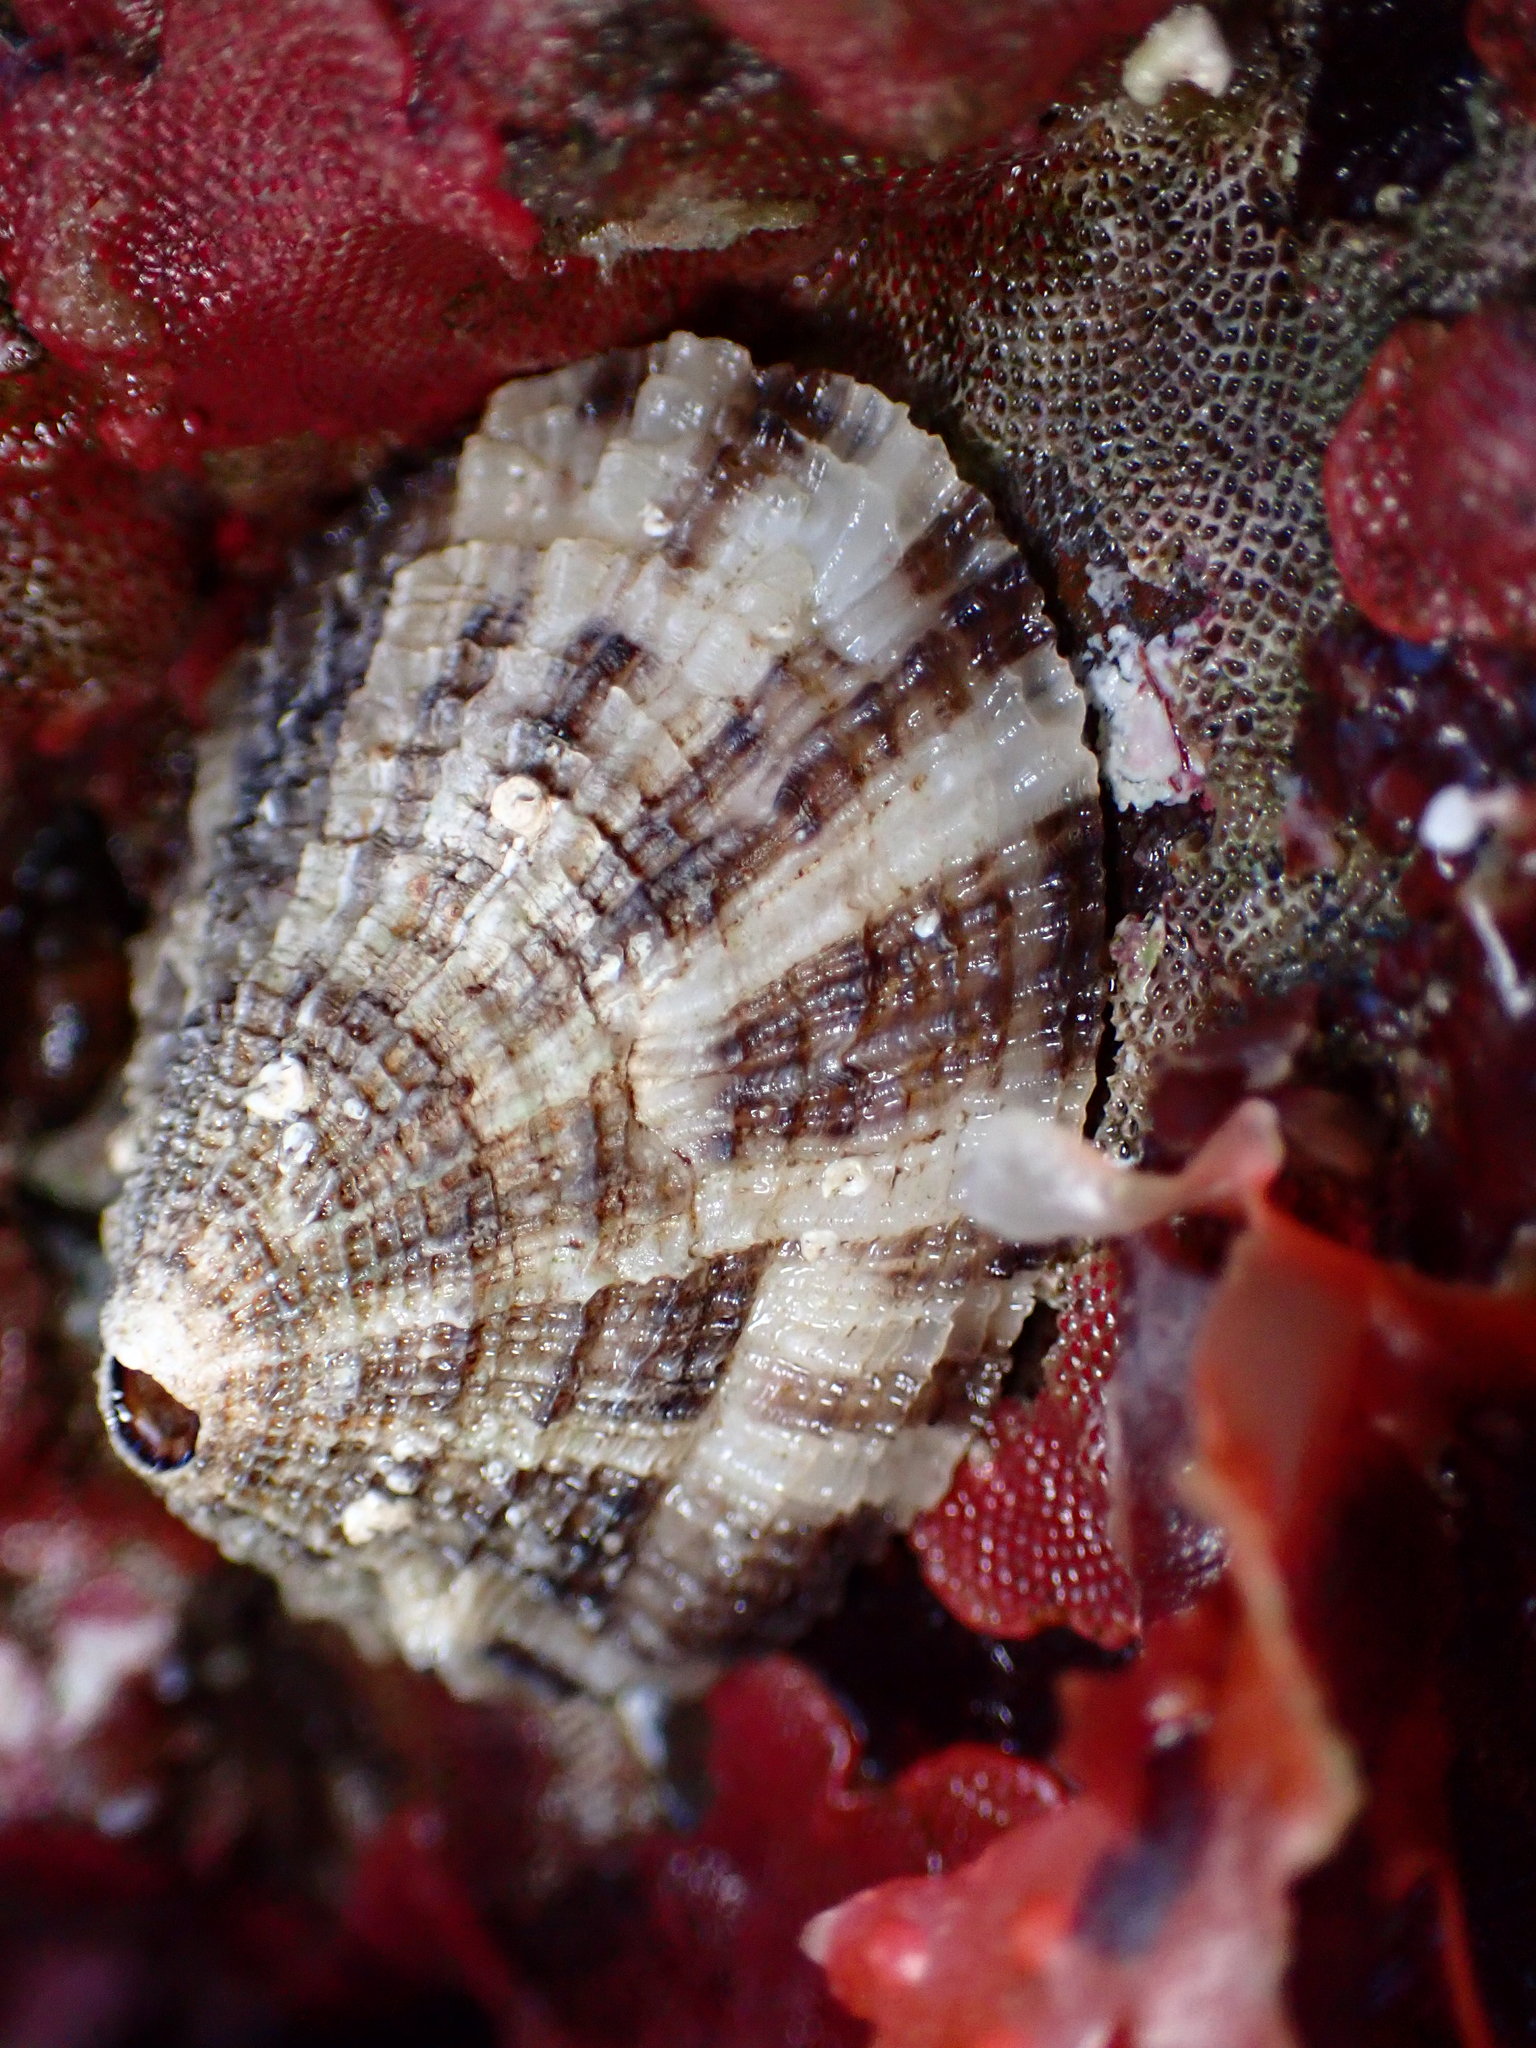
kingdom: Animalia
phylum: Mollusca
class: Gastropoda
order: Lepetellida
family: Fissurellidae
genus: Diodora
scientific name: Diodora aspera
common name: Rough keyhole limpet
